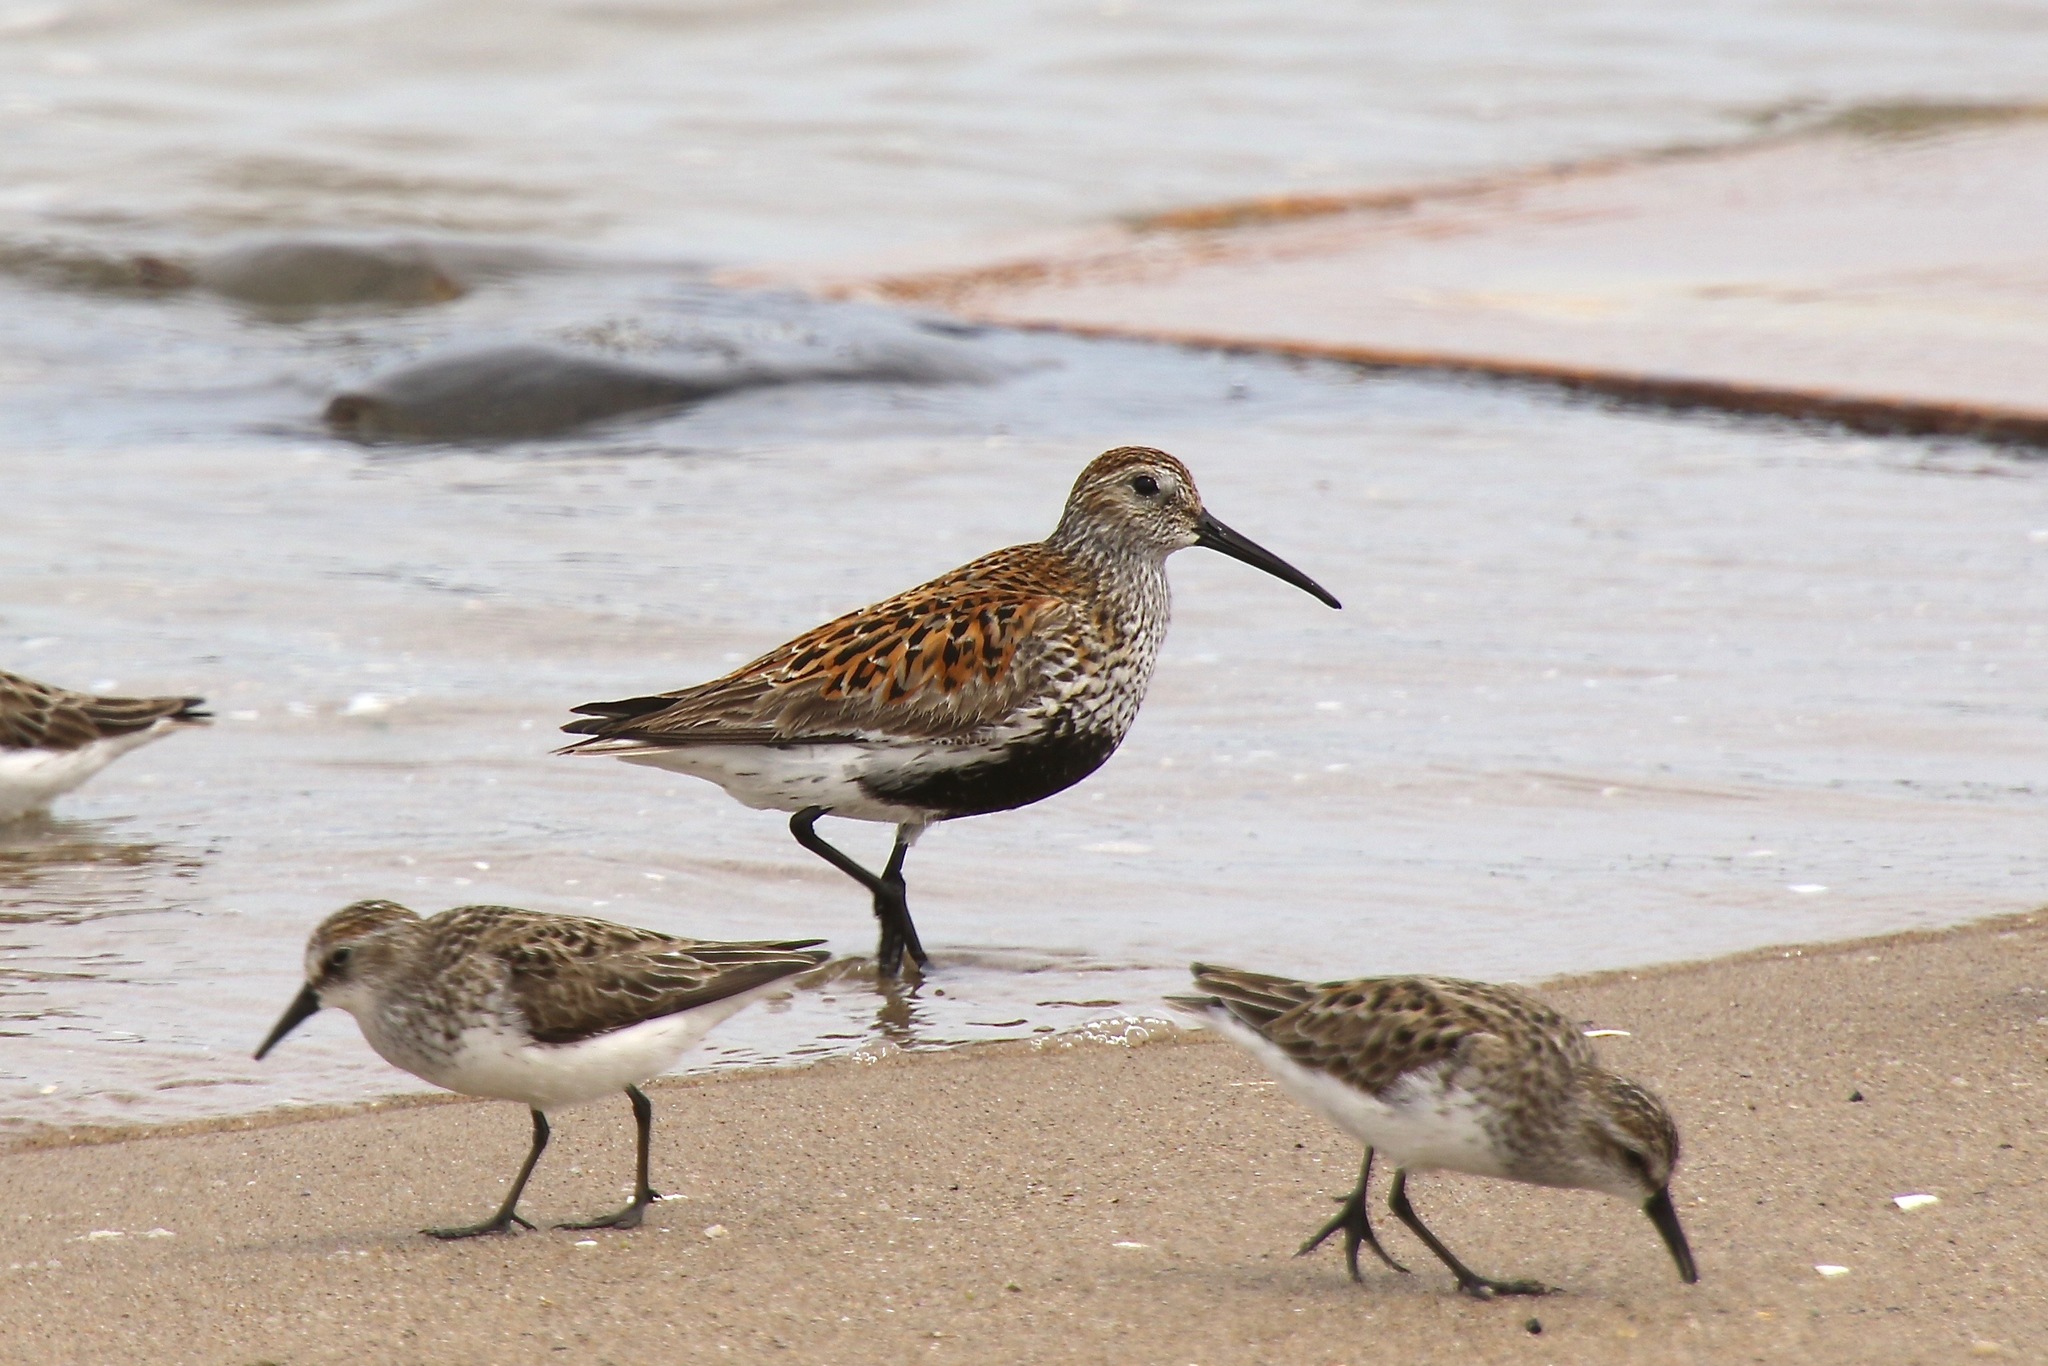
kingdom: Animalia
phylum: Chordata
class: Aves
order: Charadriiformes
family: Scolopacidae
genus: Calidris
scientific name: Calidris alpina
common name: Dunlin
